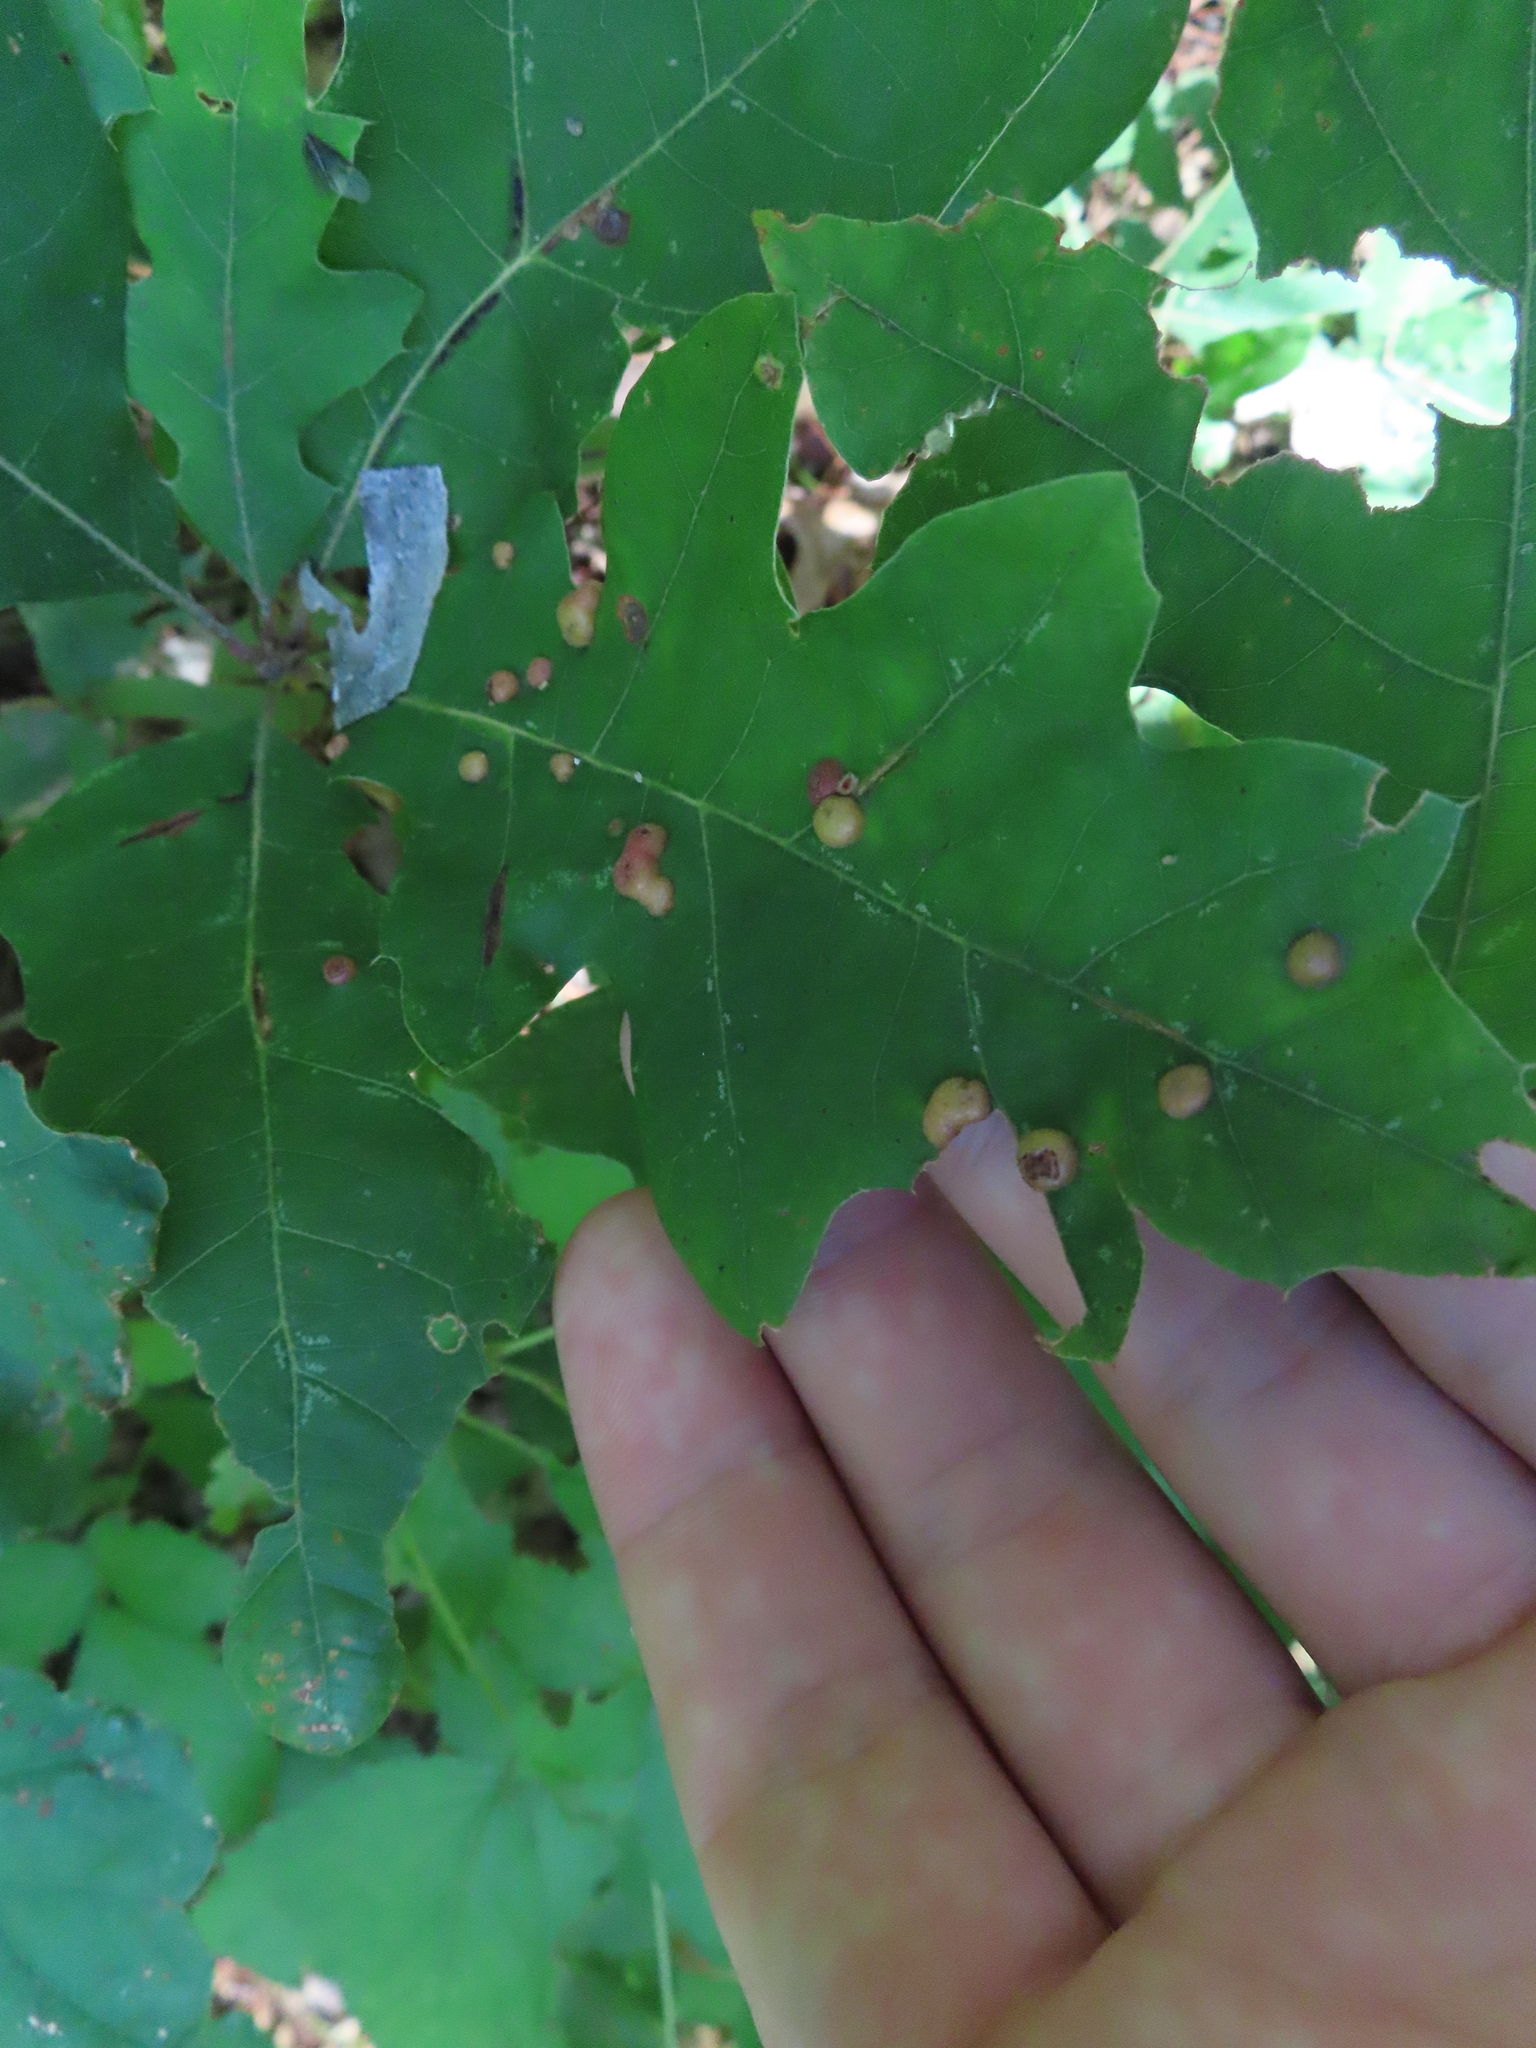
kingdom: Animalia
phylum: Arthropoda
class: Insecta
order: Diptera
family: Cecidomyiidae
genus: Polystepha
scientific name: Polystepha pilulae
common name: Oak leaf gall midge
